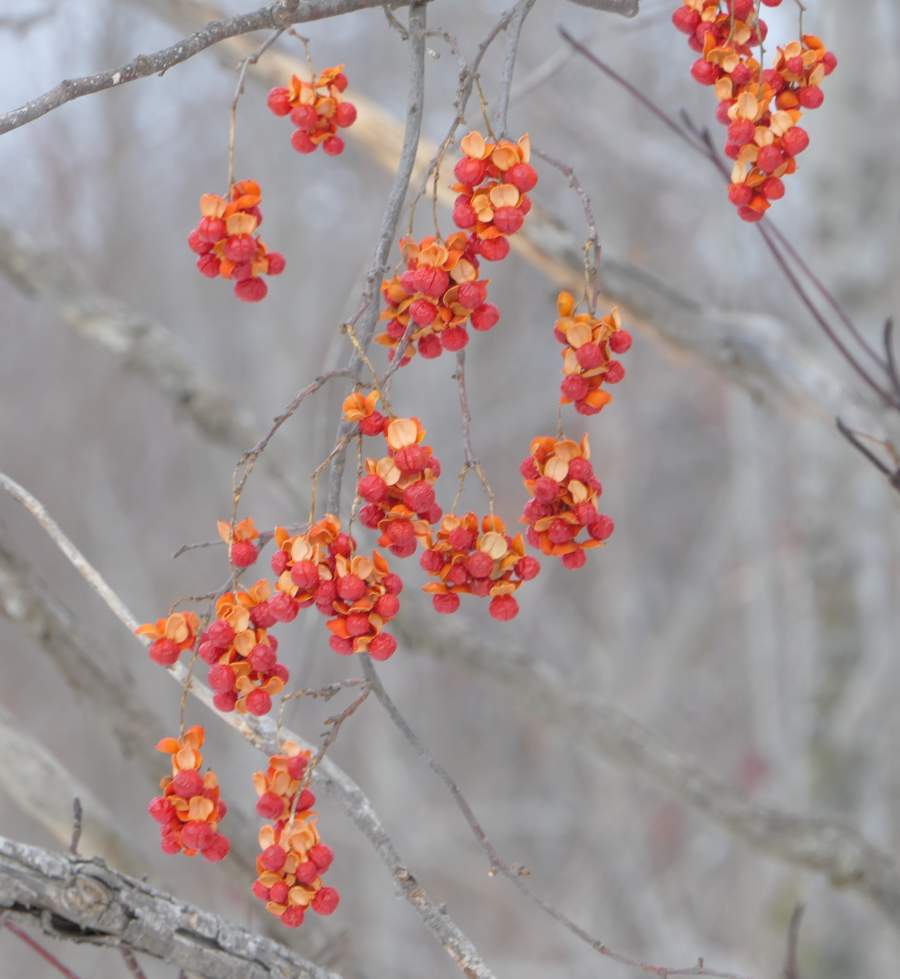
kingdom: Plantae
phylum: Tracheophyta
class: Magnoliopsida
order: Celastrales
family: Celastraceae
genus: Celastrus
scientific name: Celastrus scandens
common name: American bittersweet
